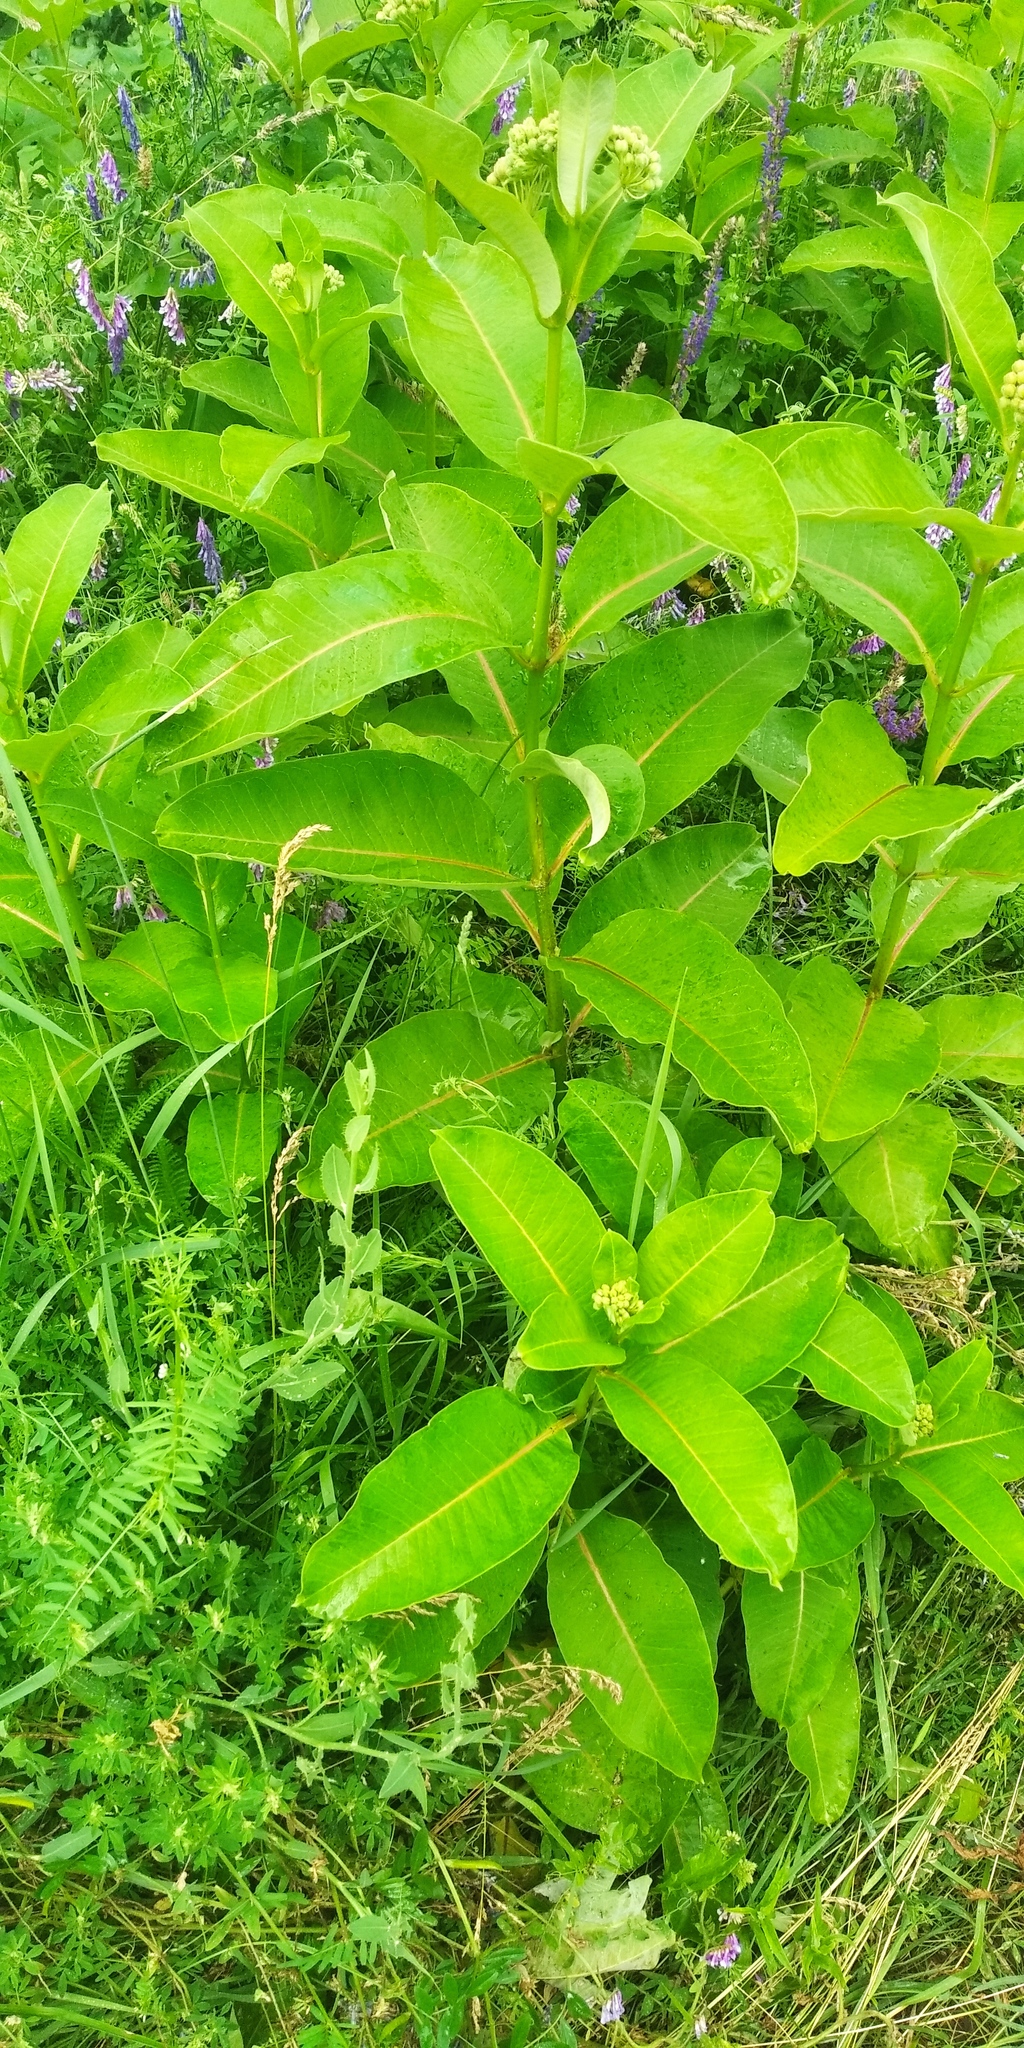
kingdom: Plantae
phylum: Tracheophyta
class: Magnoliopsida
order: Gentianales
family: Apocynaceae
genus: Asclepias
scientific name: Asclepias syriaca
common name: Common milkweed
